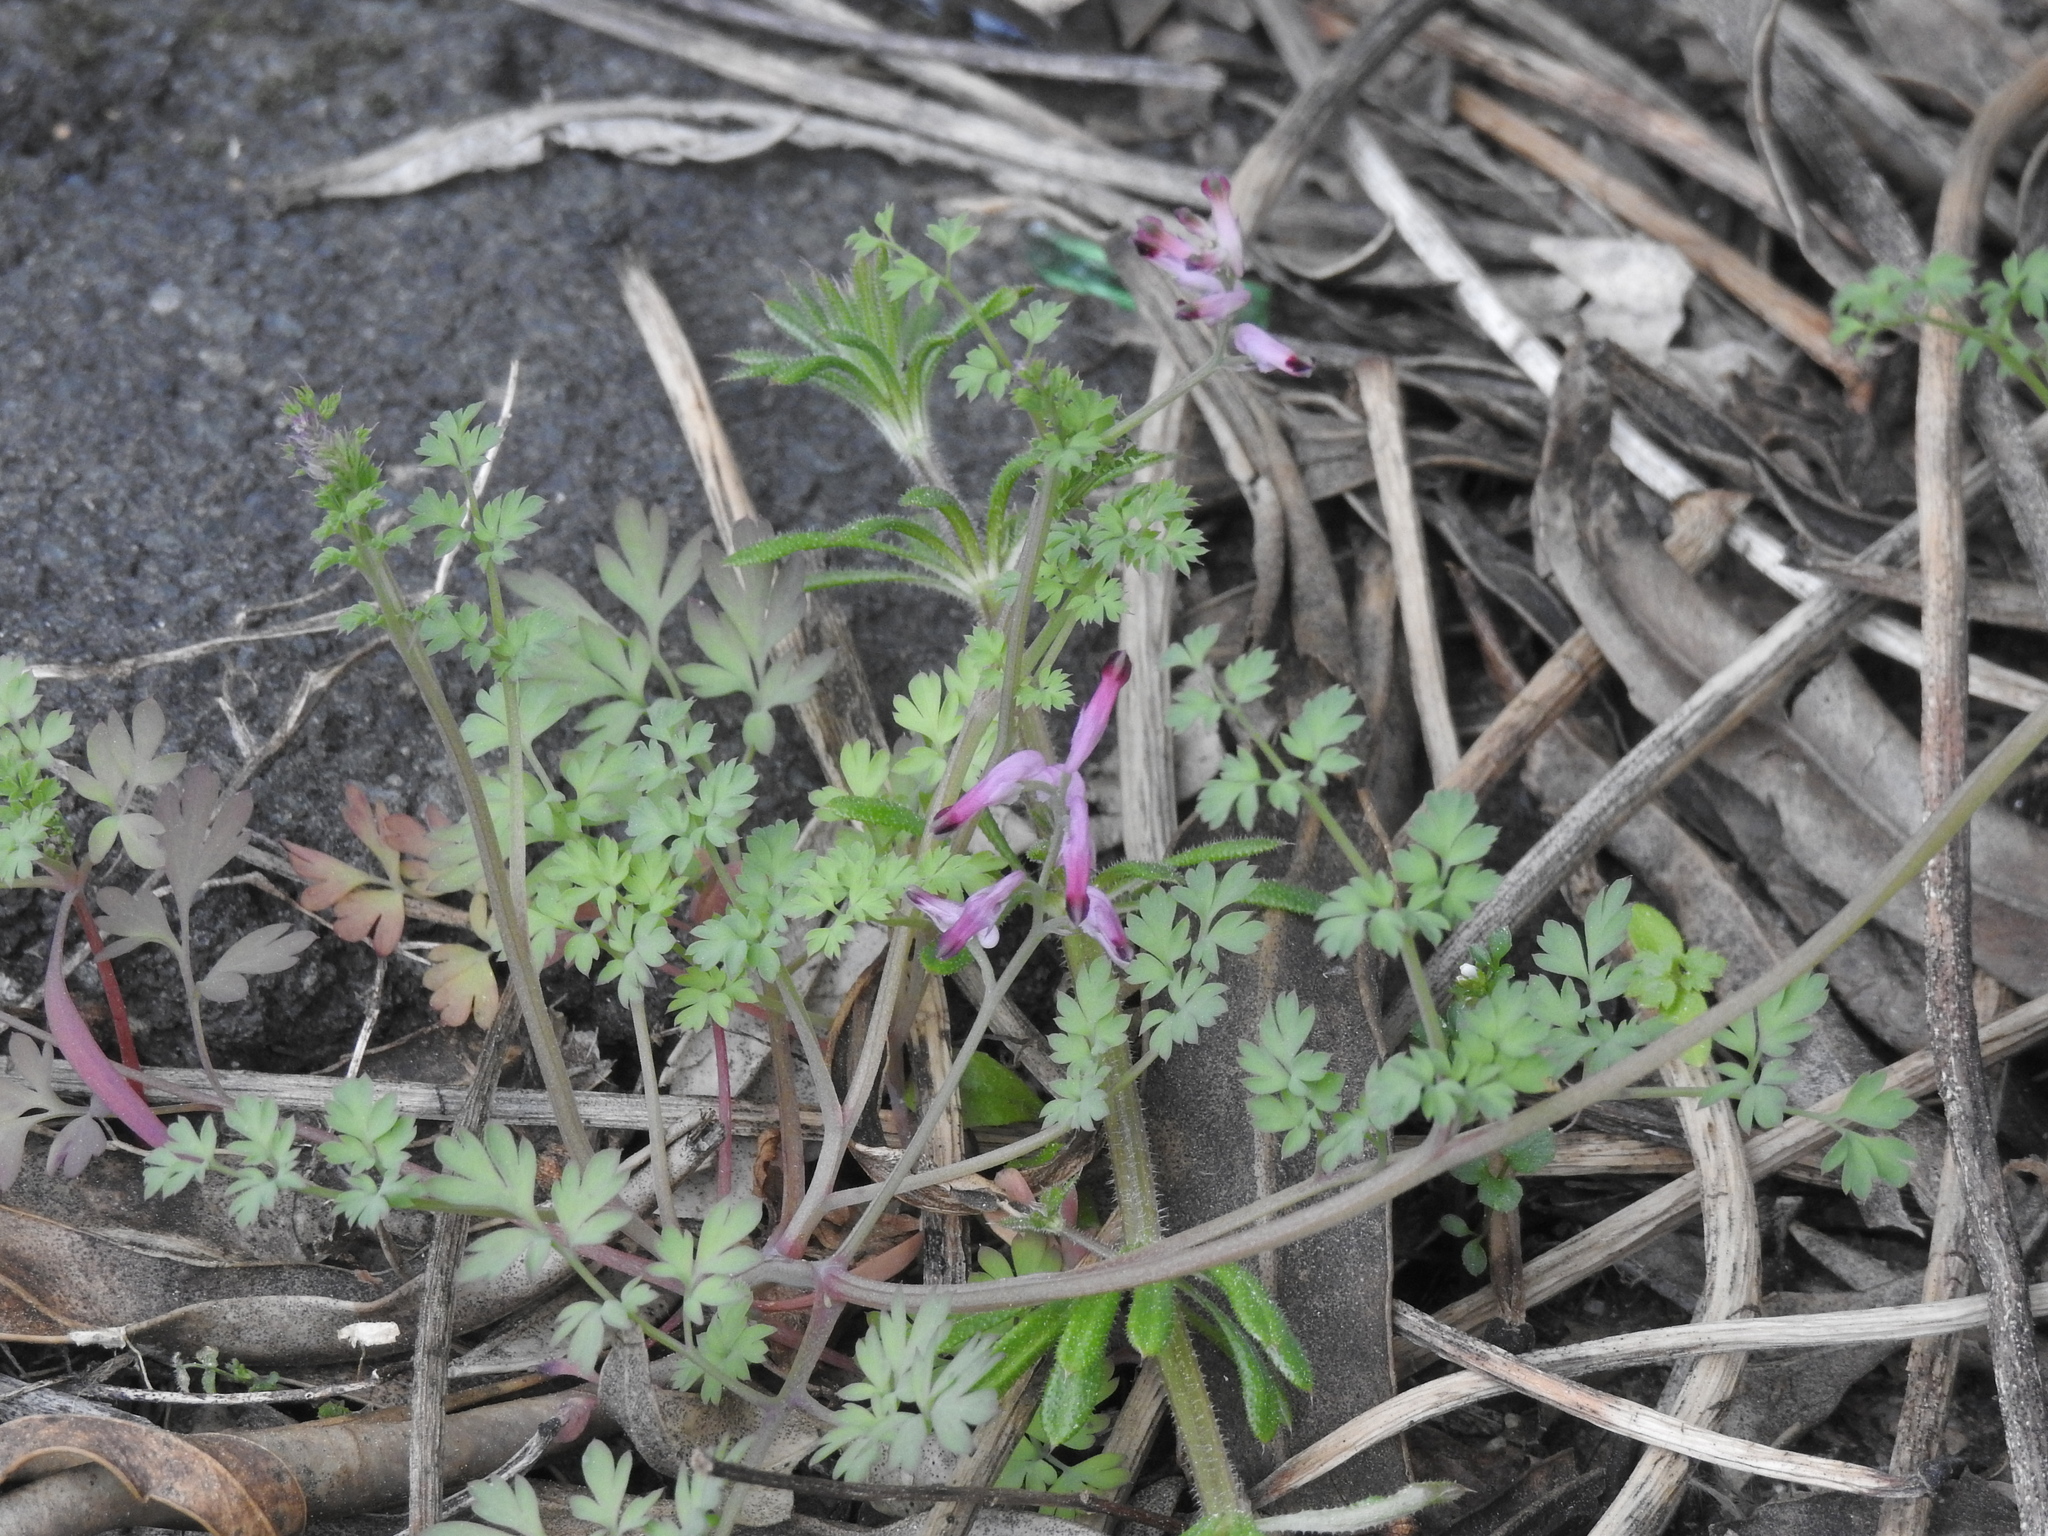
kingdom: Plantae
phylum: Tracheophyta
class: Magnoliopsida
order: Ranunculales
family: Papaveraceae
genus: Fumaria
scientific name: Fumaria muralis
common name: Common ramping-fumitory
